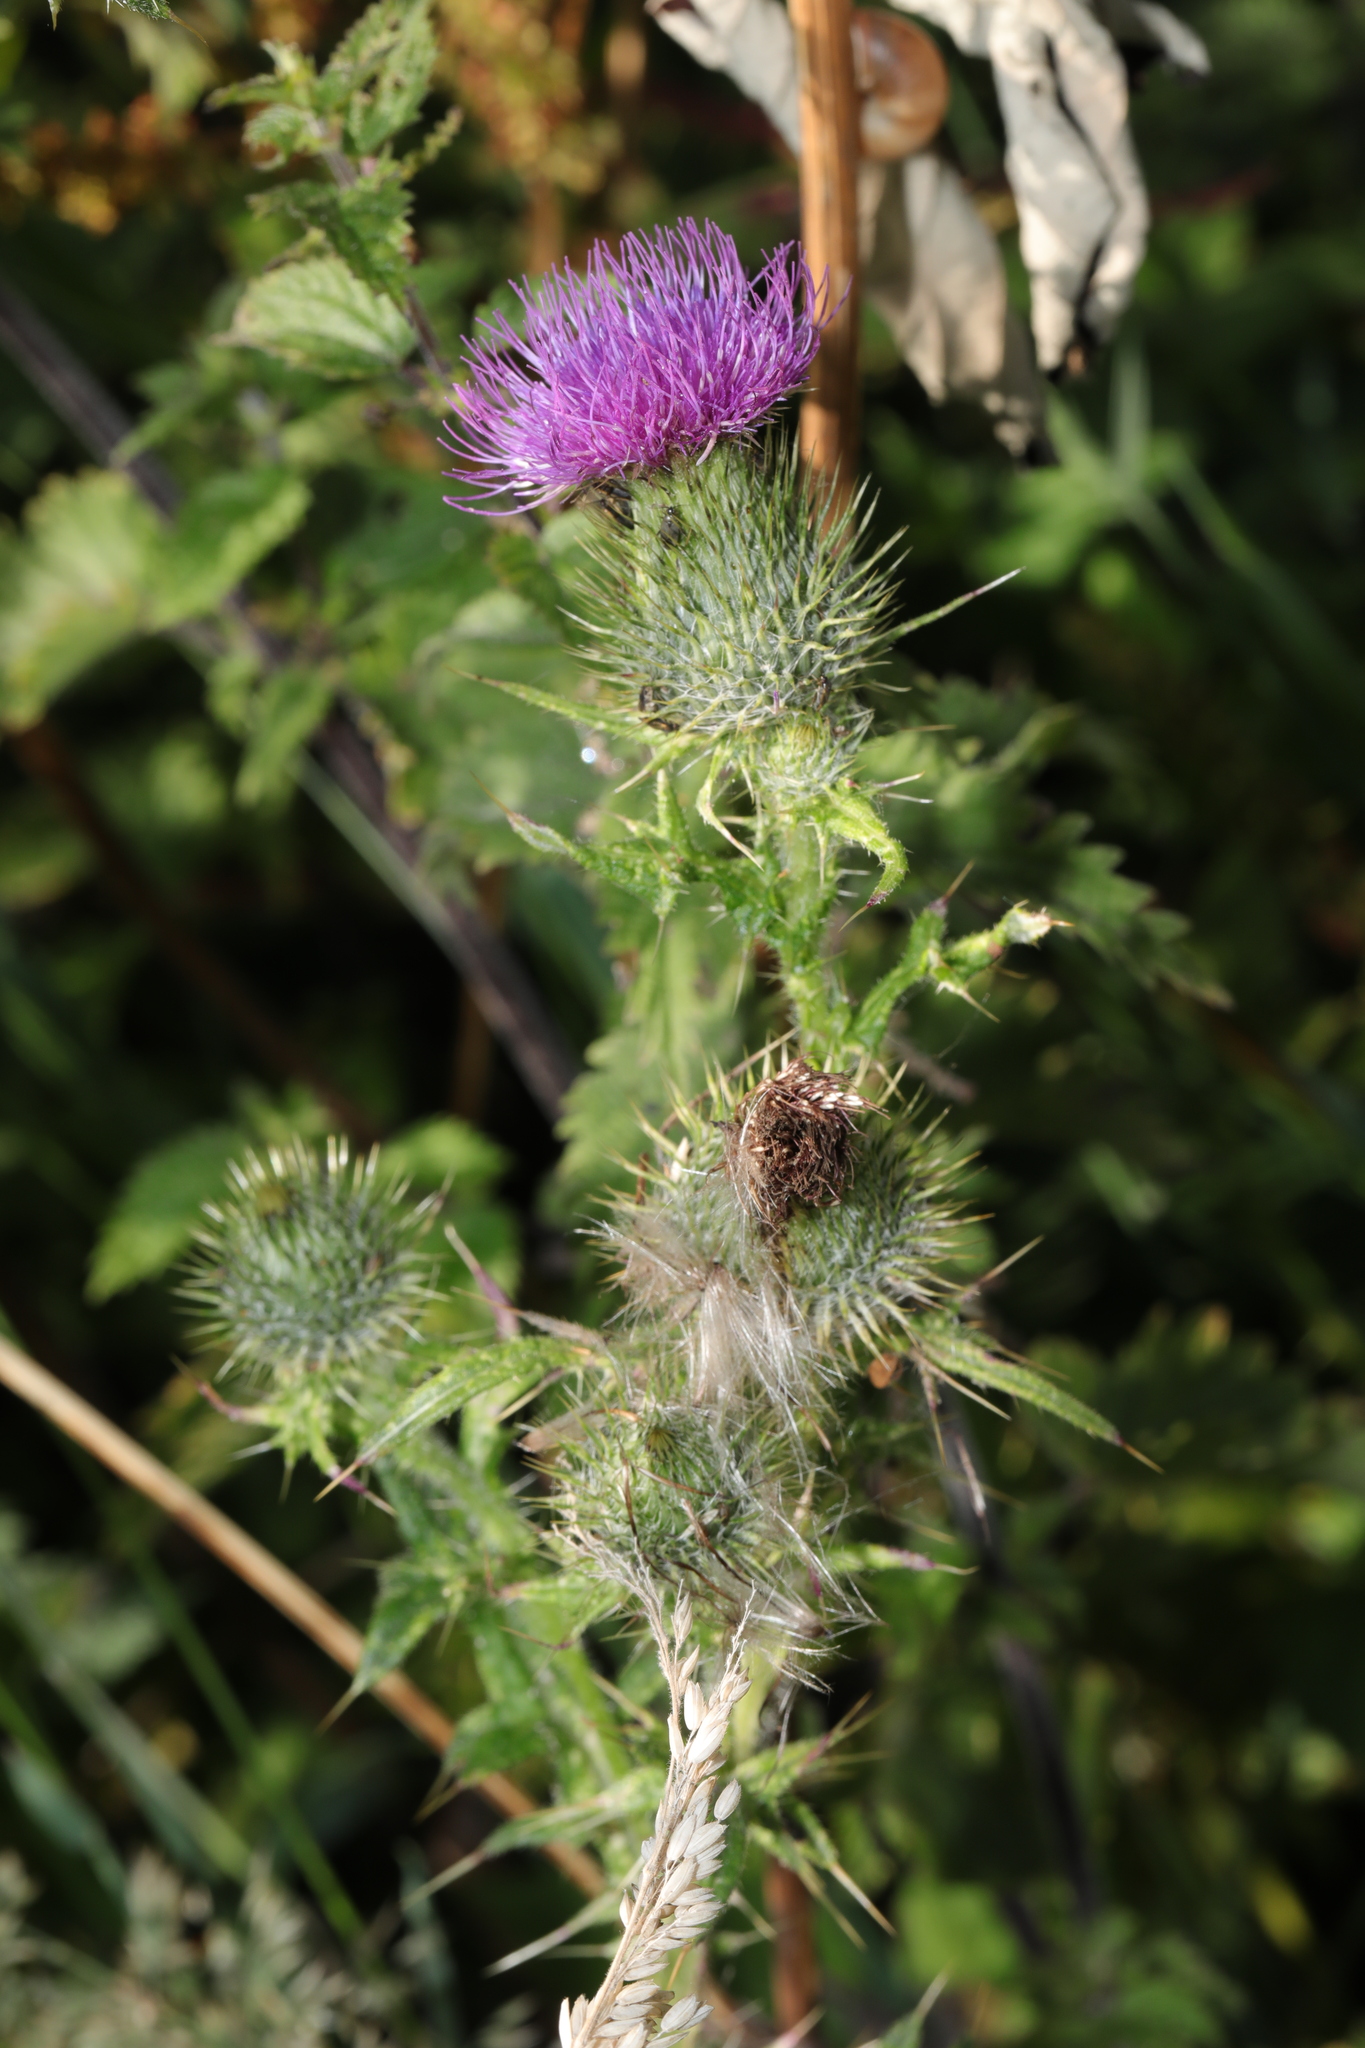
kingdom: Plantae
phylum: Tracheophyta
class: Magnoliopsida
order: Asterales
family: Asteraceae
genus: Cirsium
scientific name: Cirsium vulgare
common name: Bull thistle
